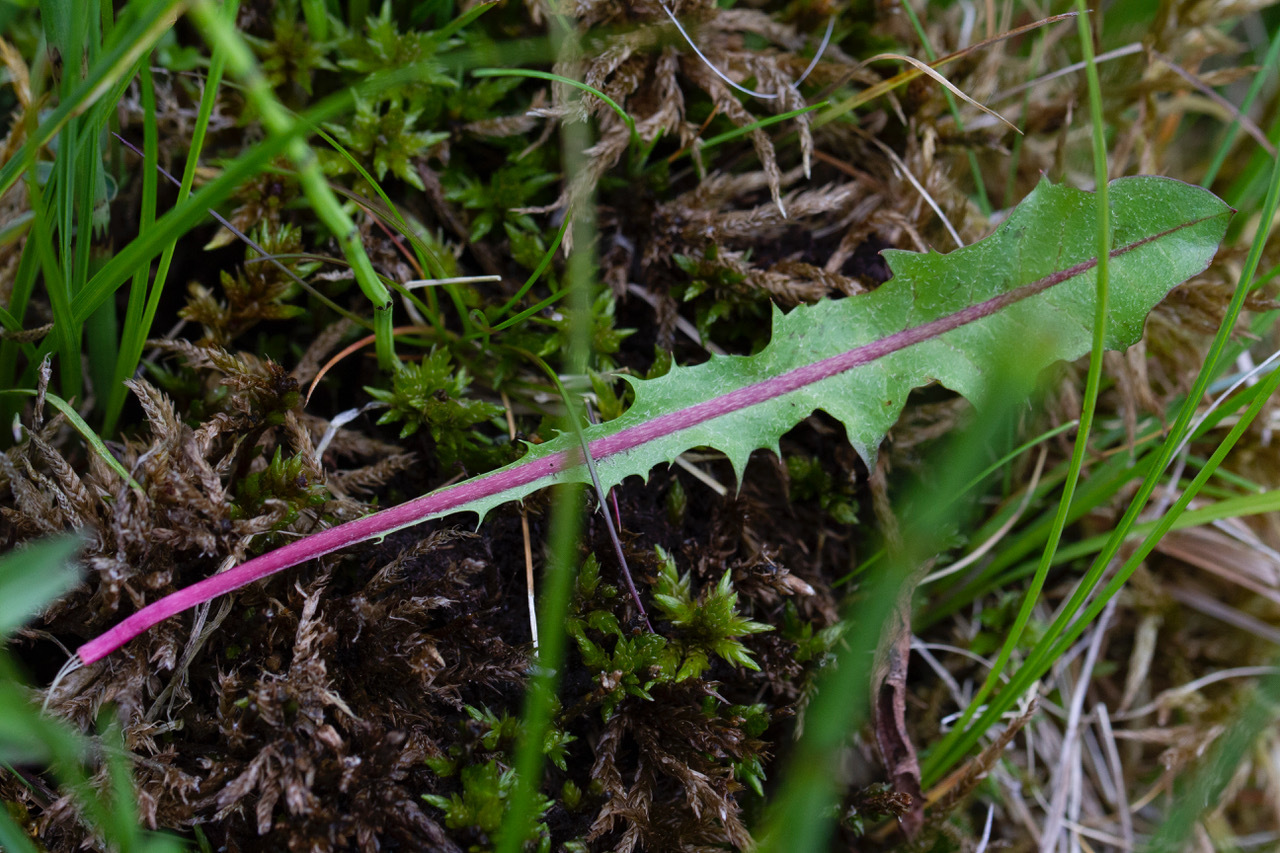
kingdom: Plantae
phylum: Tracheophyta
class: Magnoliopsida
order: Asterales
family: Asteraceae
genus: Taraxacum
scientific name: Taraxacum faeroense
